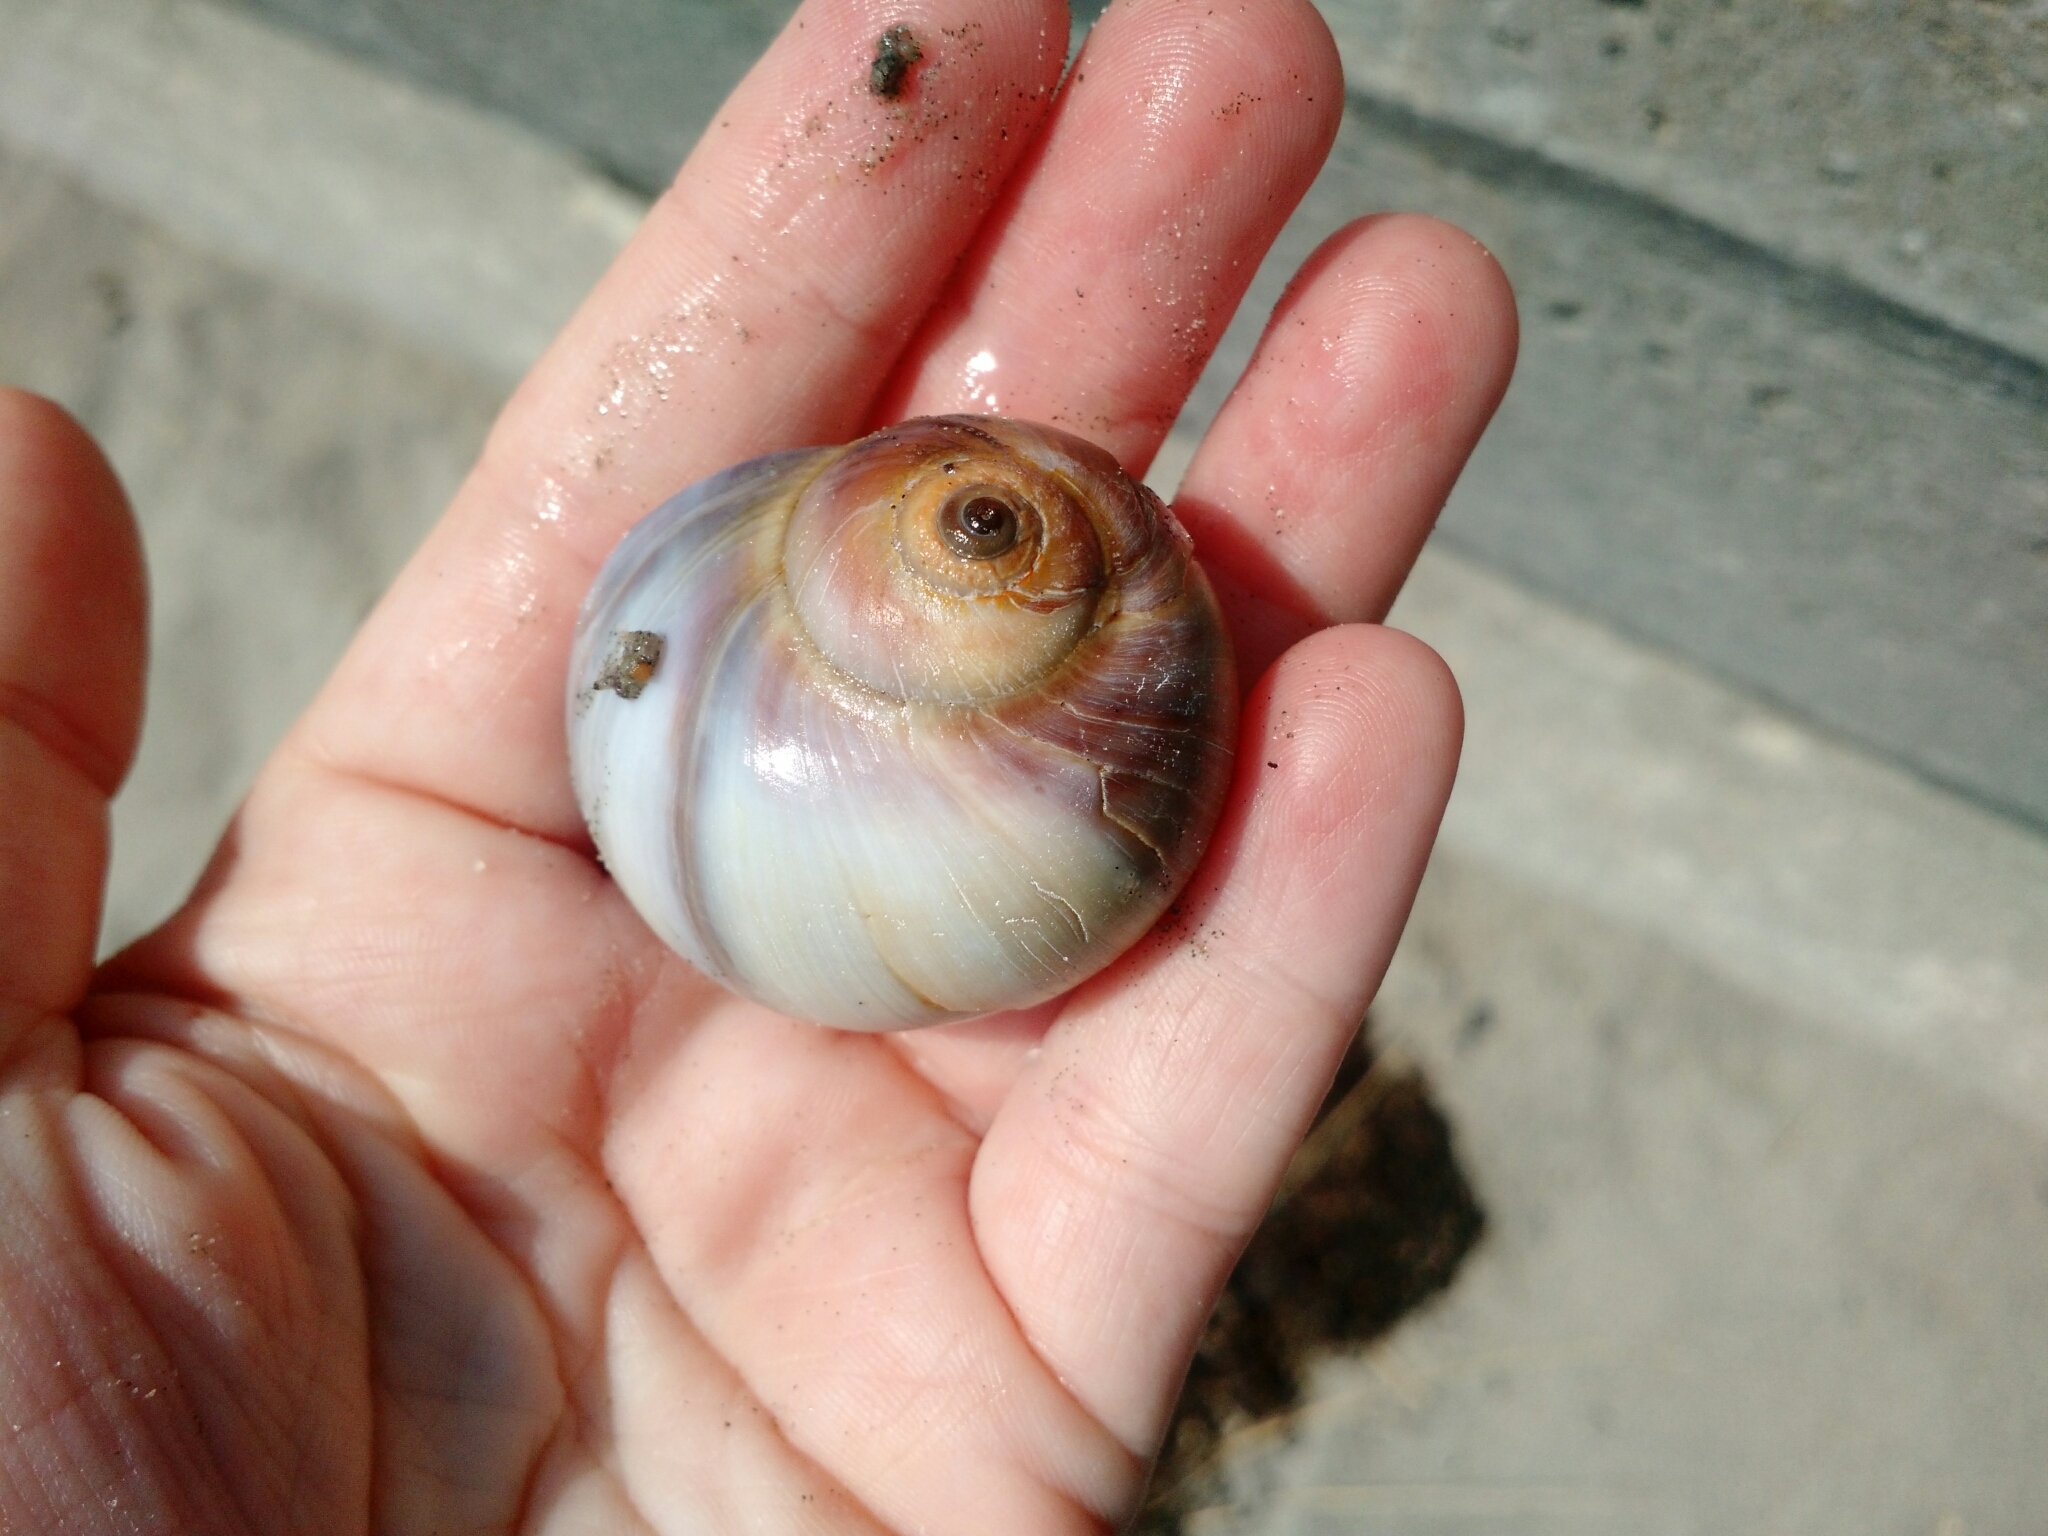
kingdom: Animalia
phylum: Mollusca
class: Gastropoda
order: Littorinimorpha
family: Naticidae
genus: Euspira
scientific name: Euspira heros
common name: Common northern moonsnail
